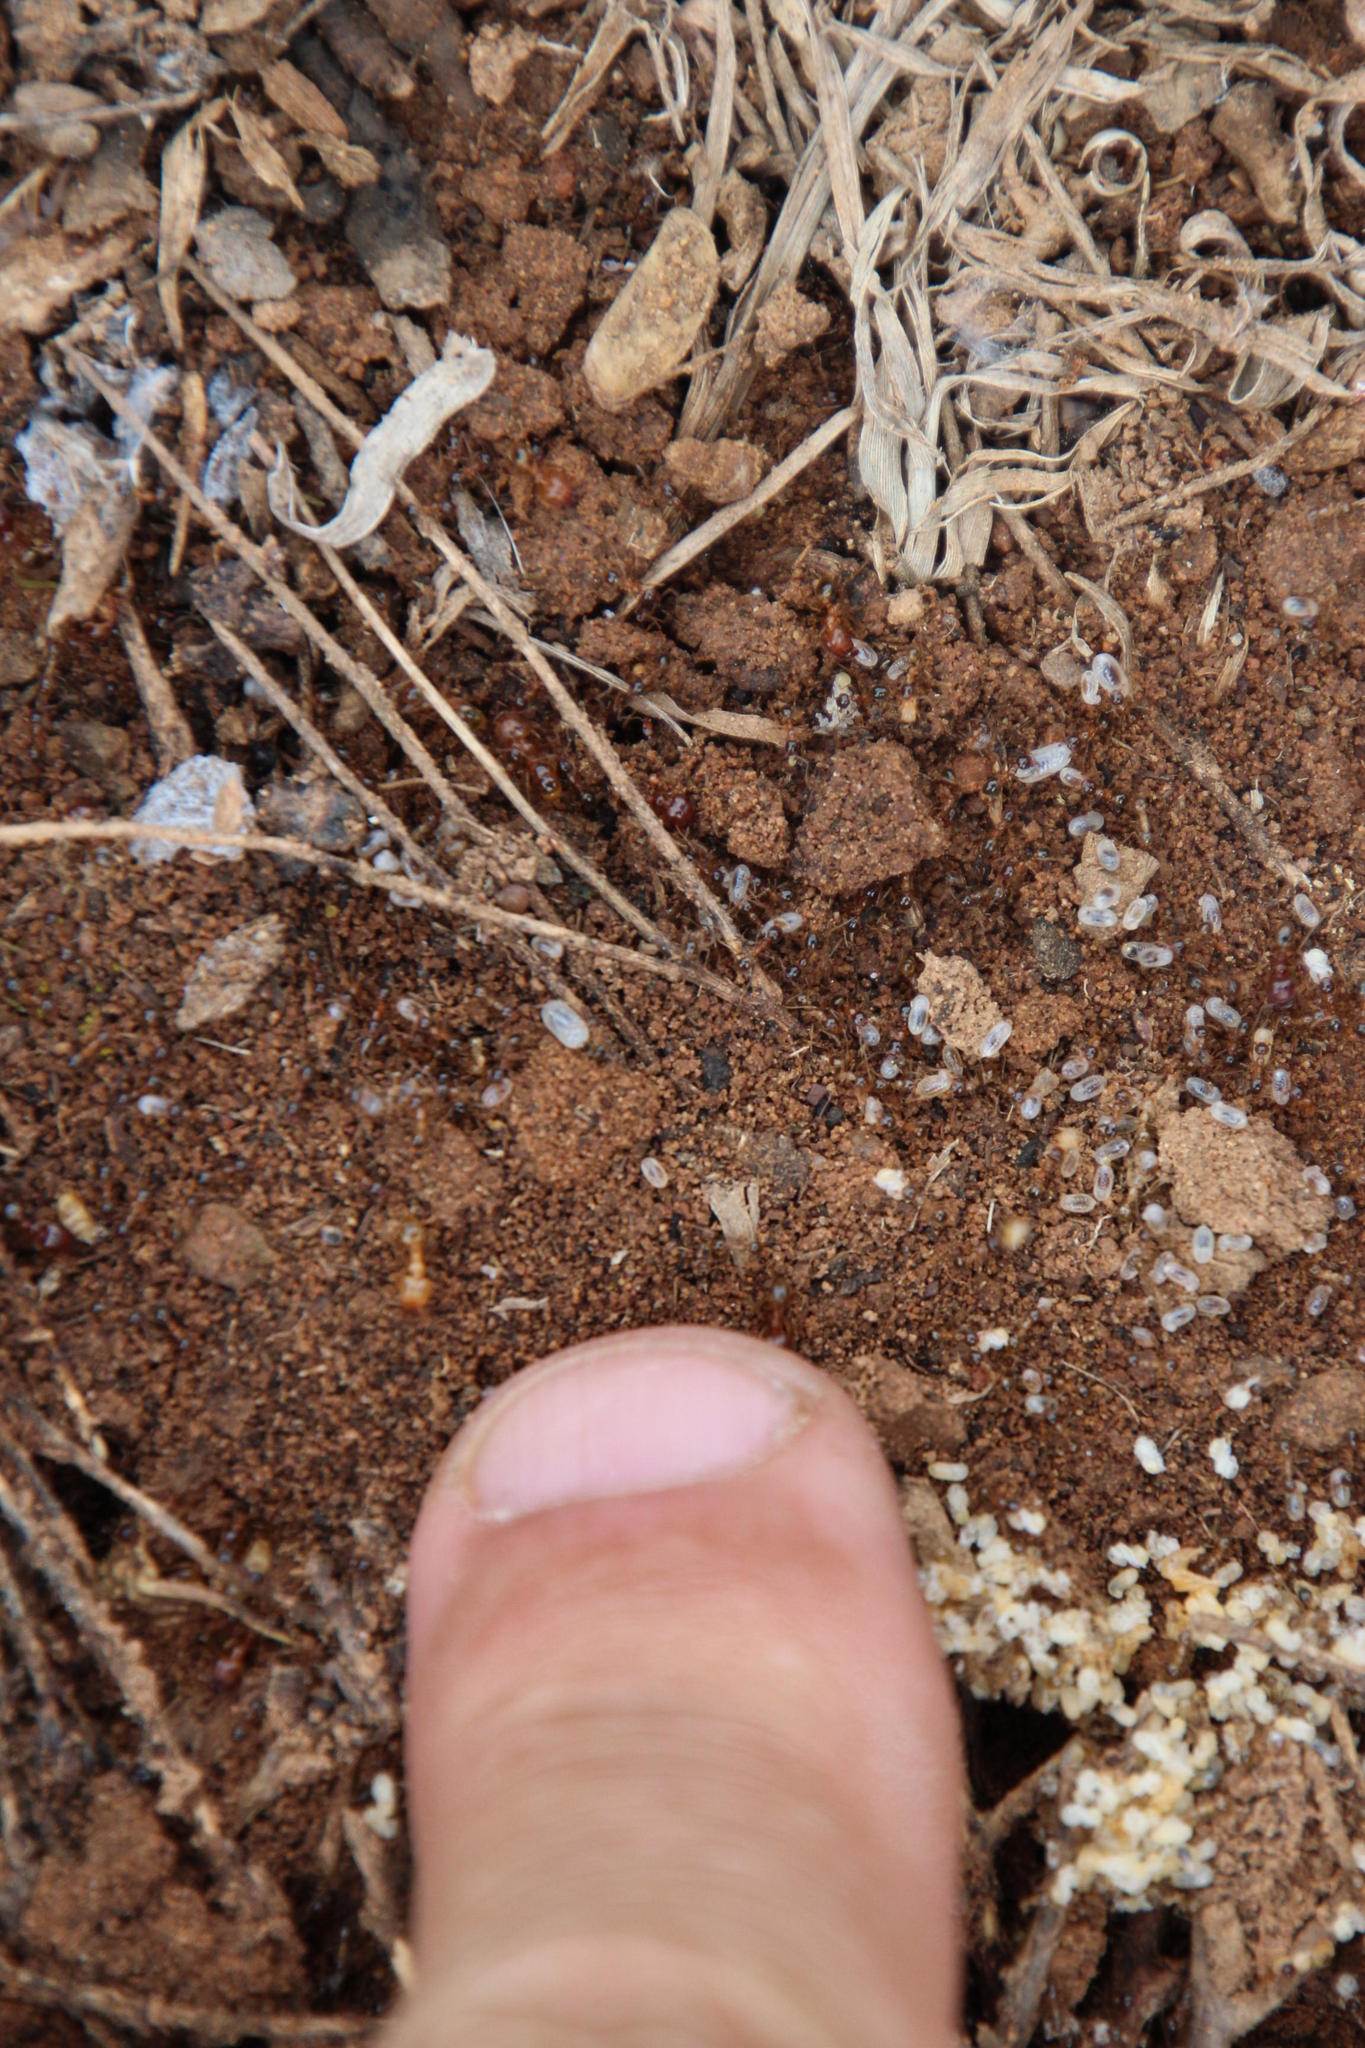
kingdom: Animalia
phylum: Arthropoda
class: Insecta
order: Hymenoptera
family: Formicidae
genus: Pheidole
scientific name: Pheidole tenuinodis
